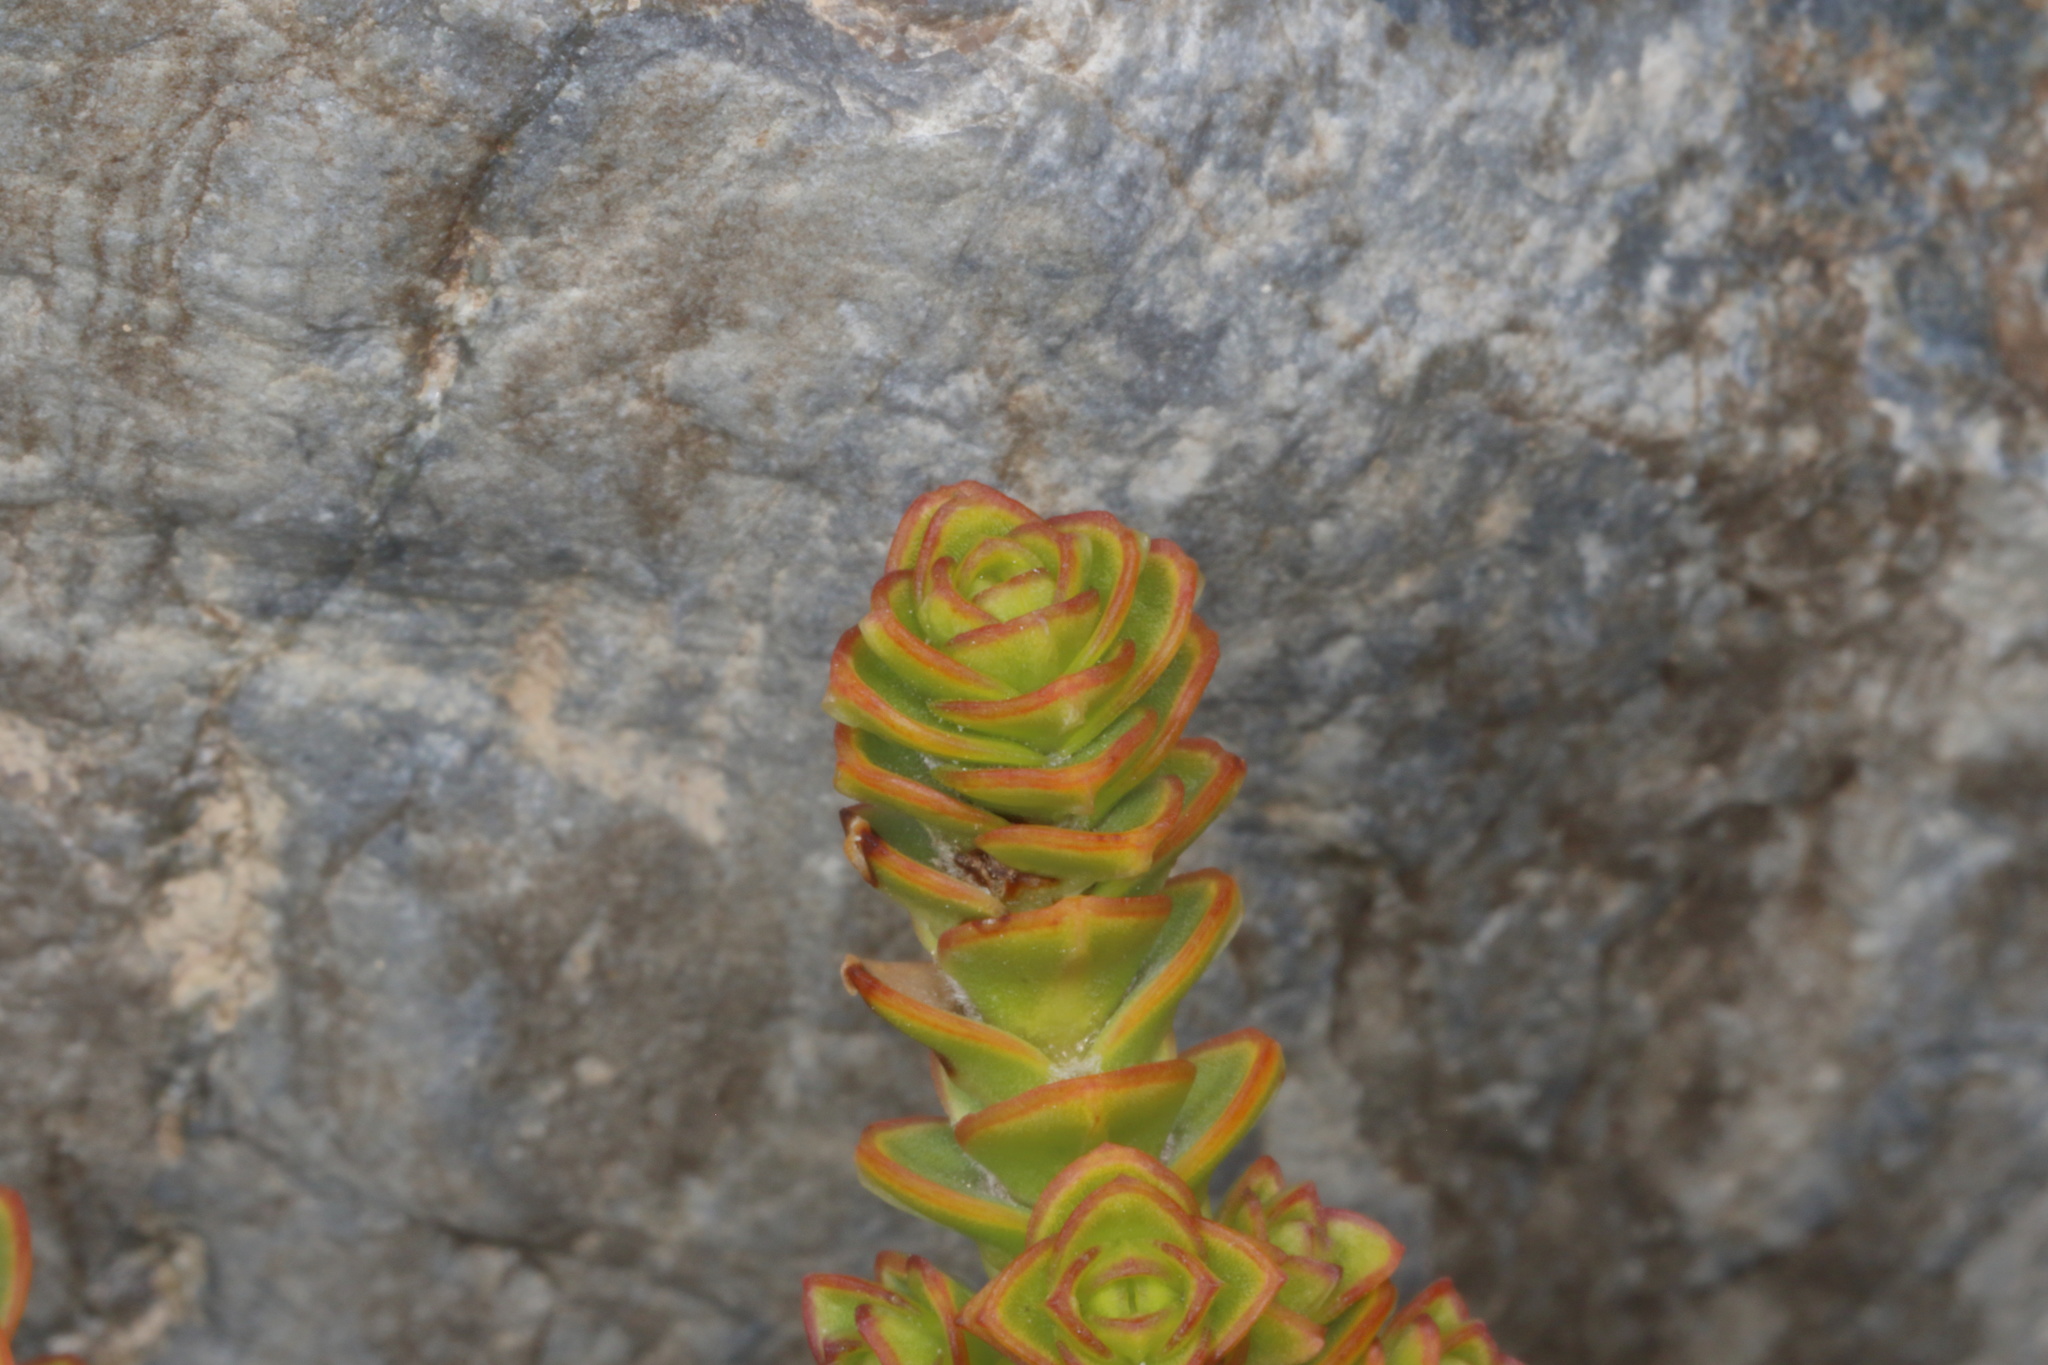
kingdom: Plantae
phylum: Tracheophyta
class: Magnoliopsida
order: Lamiales
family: Plantaginaceae
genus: Veronica
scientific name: Veronica epacridea
